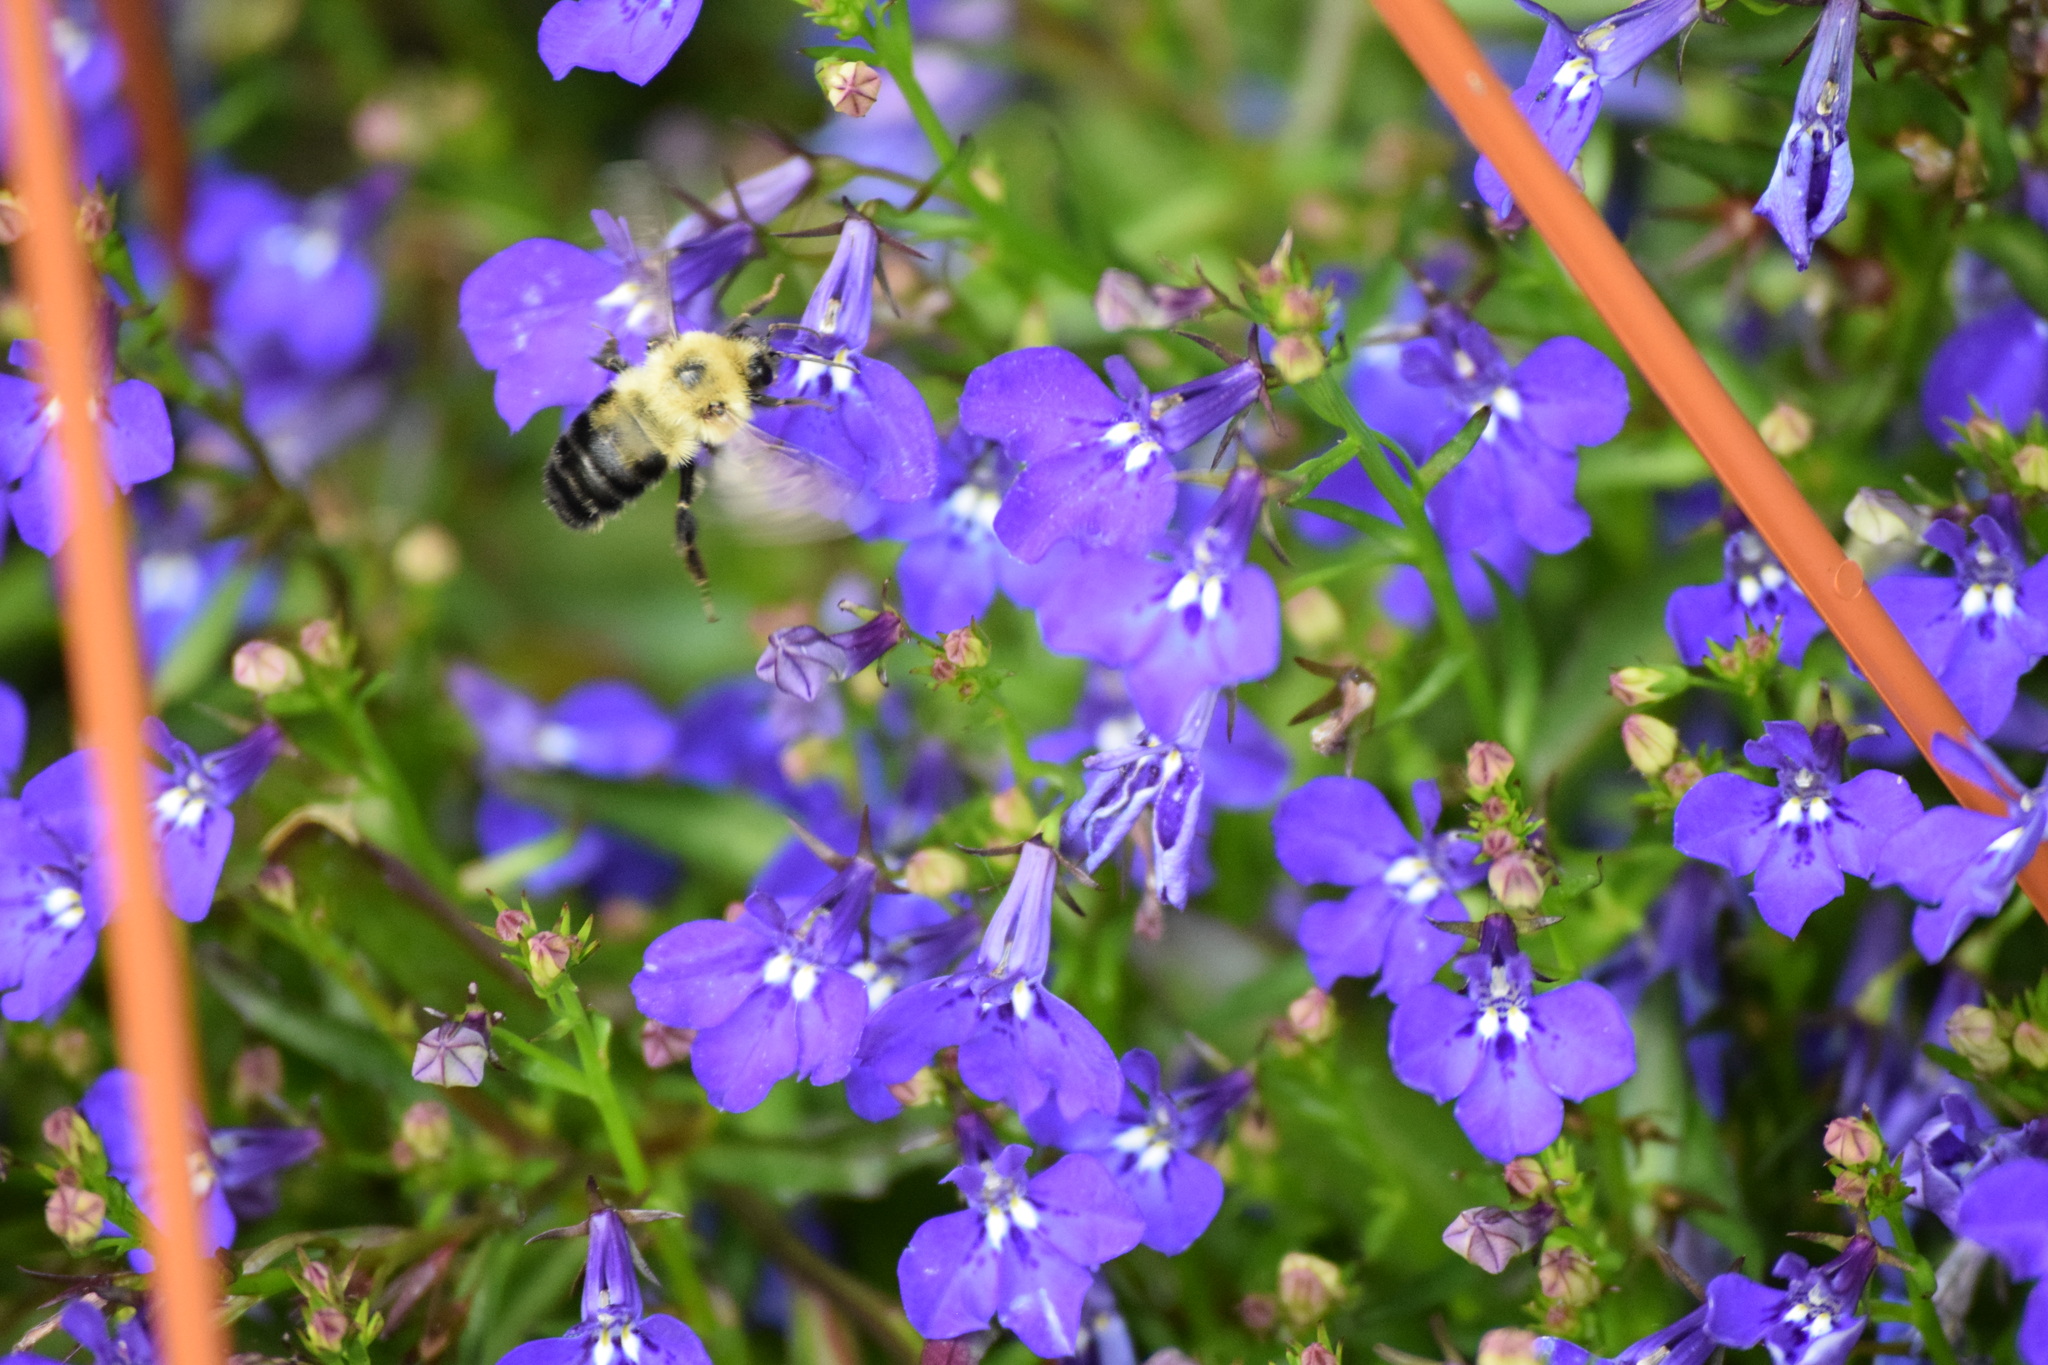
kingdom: Animalia
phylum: Arthropoda
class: Insecta
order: Hymenoptera
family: Apidae
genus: Bombus
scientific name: Bombus bimaculatus
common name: Two-spotted bumble bee
